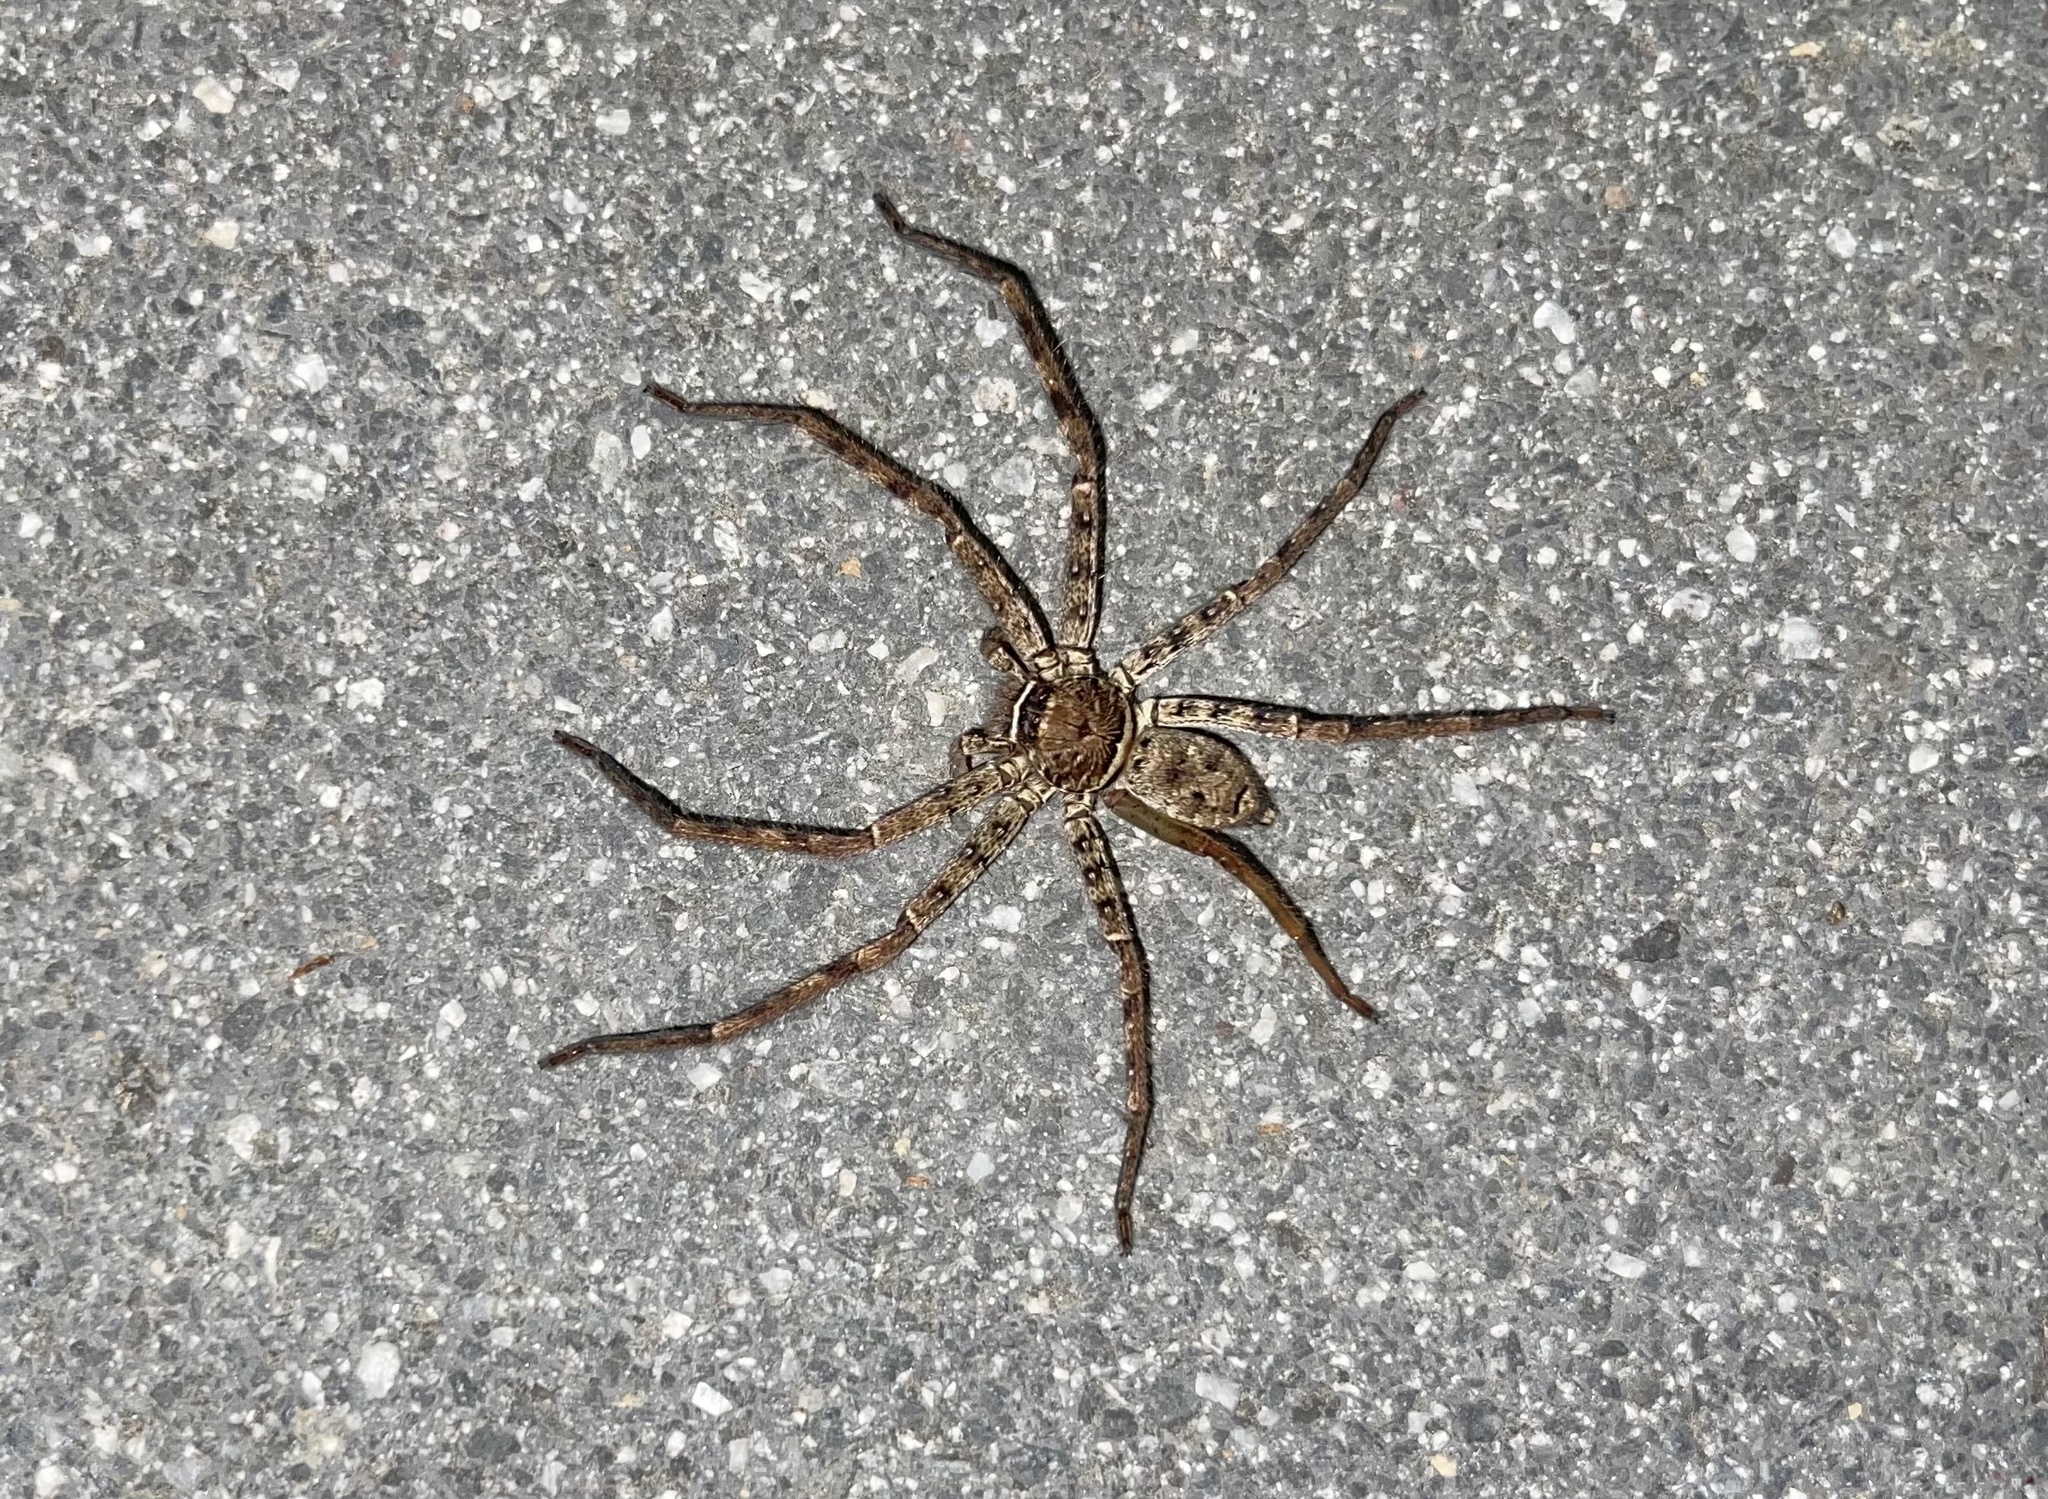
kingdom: Animalia
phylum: Arthropoda
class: Arachnida
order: Araneae
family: Sparassidae
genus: Heteropoda
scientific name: Heteropoda venatoria
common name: Huntsman spider
